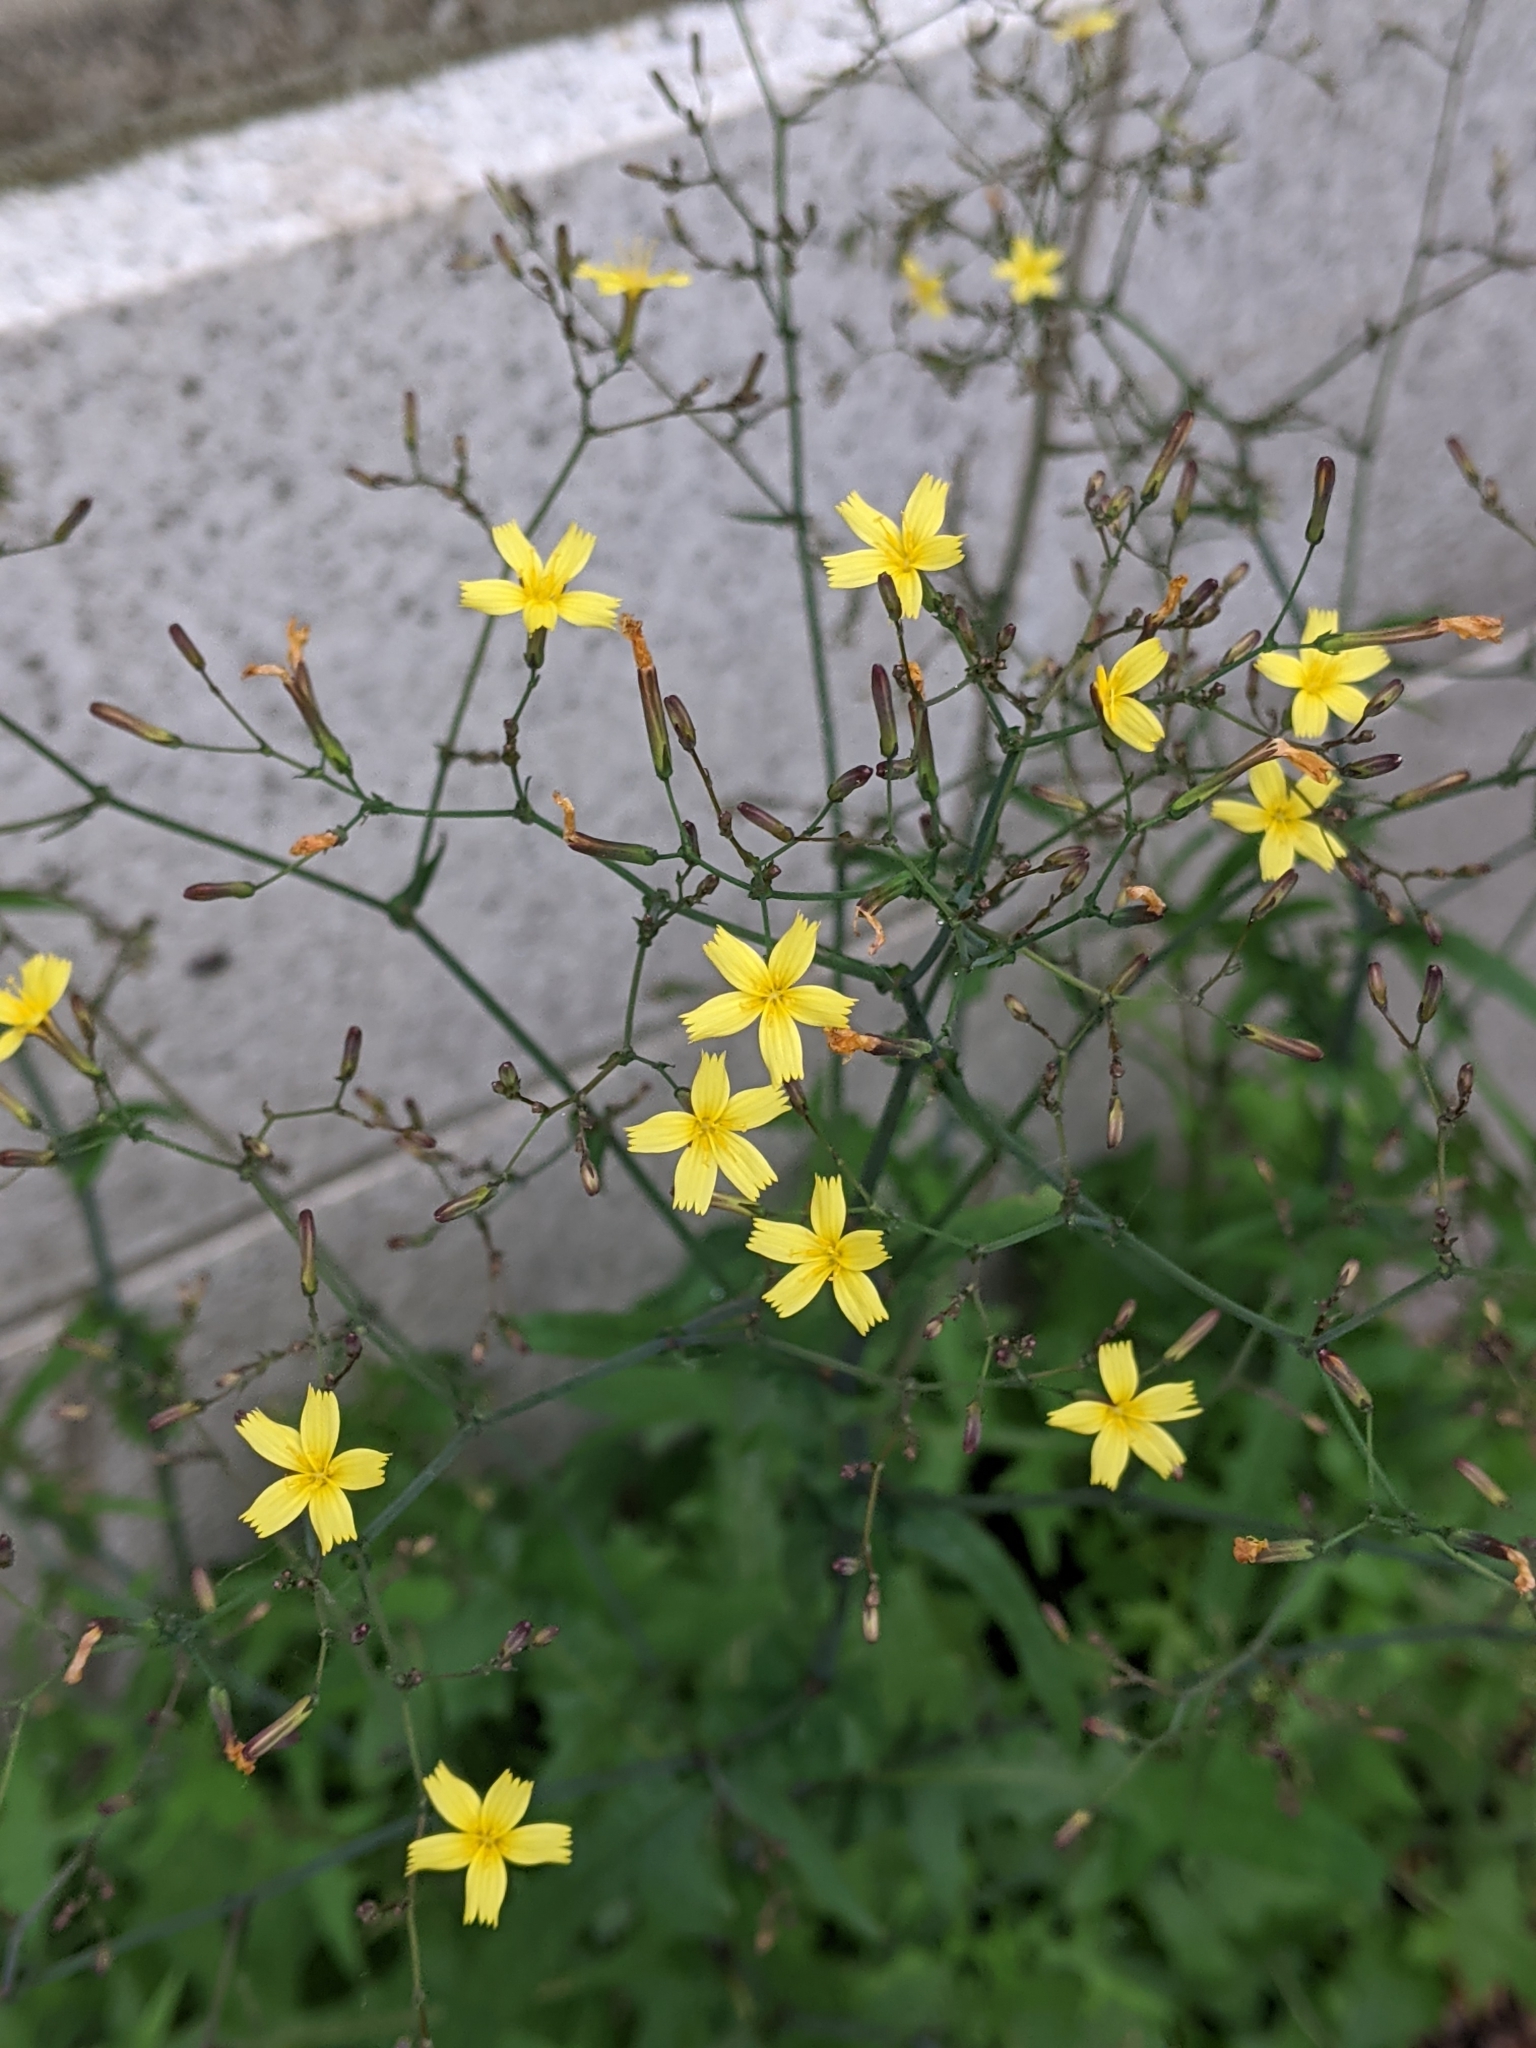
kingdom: Plantae
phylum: Tracheophyta
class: Magnoliopsida
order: Asterales
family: Asteraceae
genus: Mycelis
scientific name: Mycelis muralis
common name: Wall lettuce
